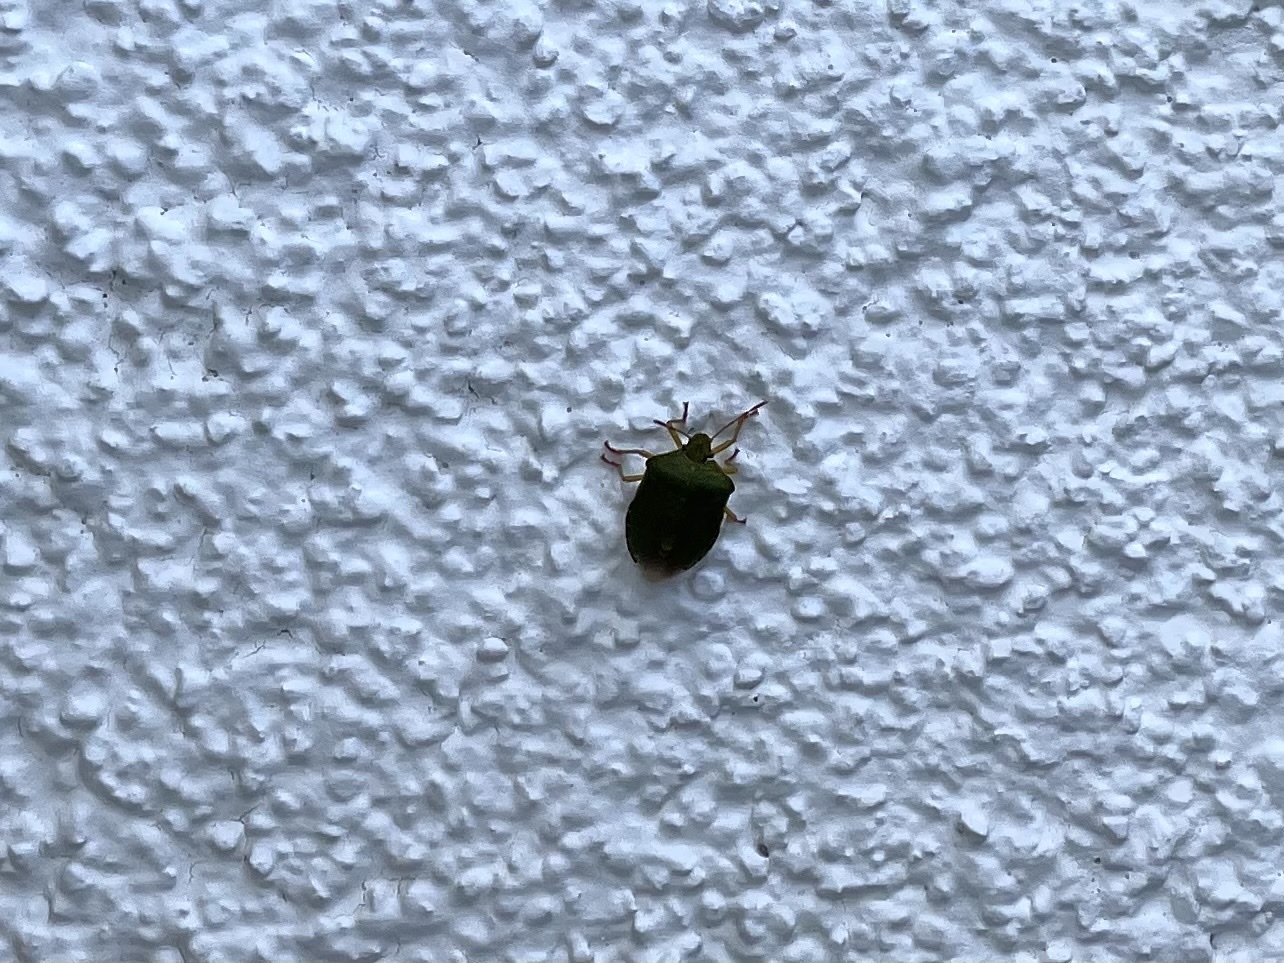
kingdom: Animalia
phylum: Arthropoda
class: Insecta
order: Hemiptera
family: Pentatomidae
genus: Palomena
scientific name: Palomena prasina
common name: Green shieldbug
